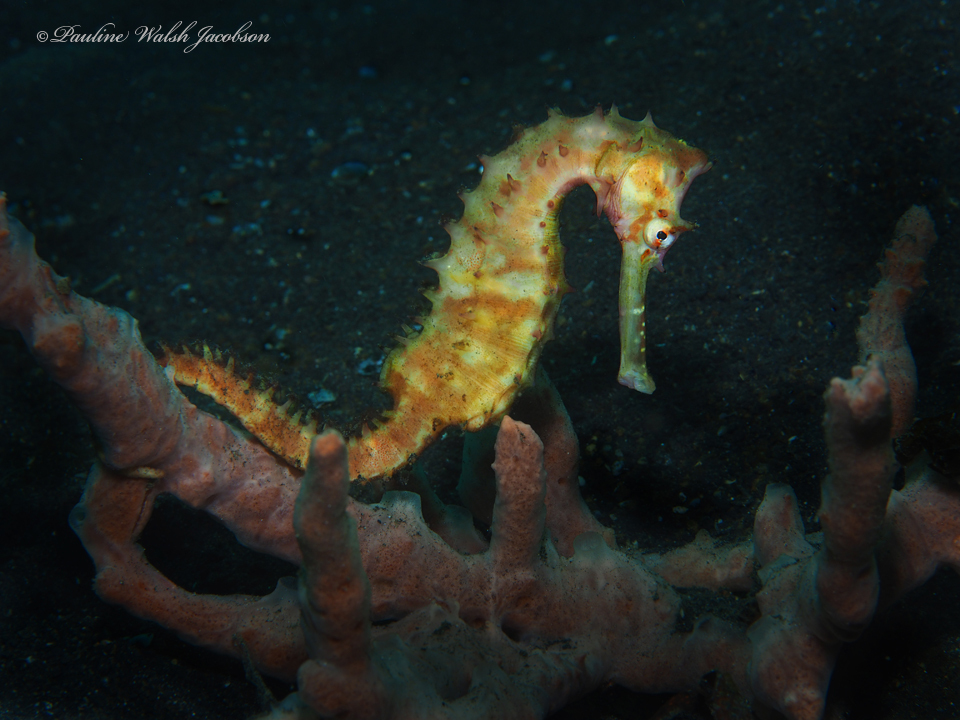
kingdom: Animalia
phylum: Chordata
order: Syngnathiformes
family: Syngnathidae
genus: Hippocampus
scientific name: Hippocampus histrix
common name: Longspine seahorse
